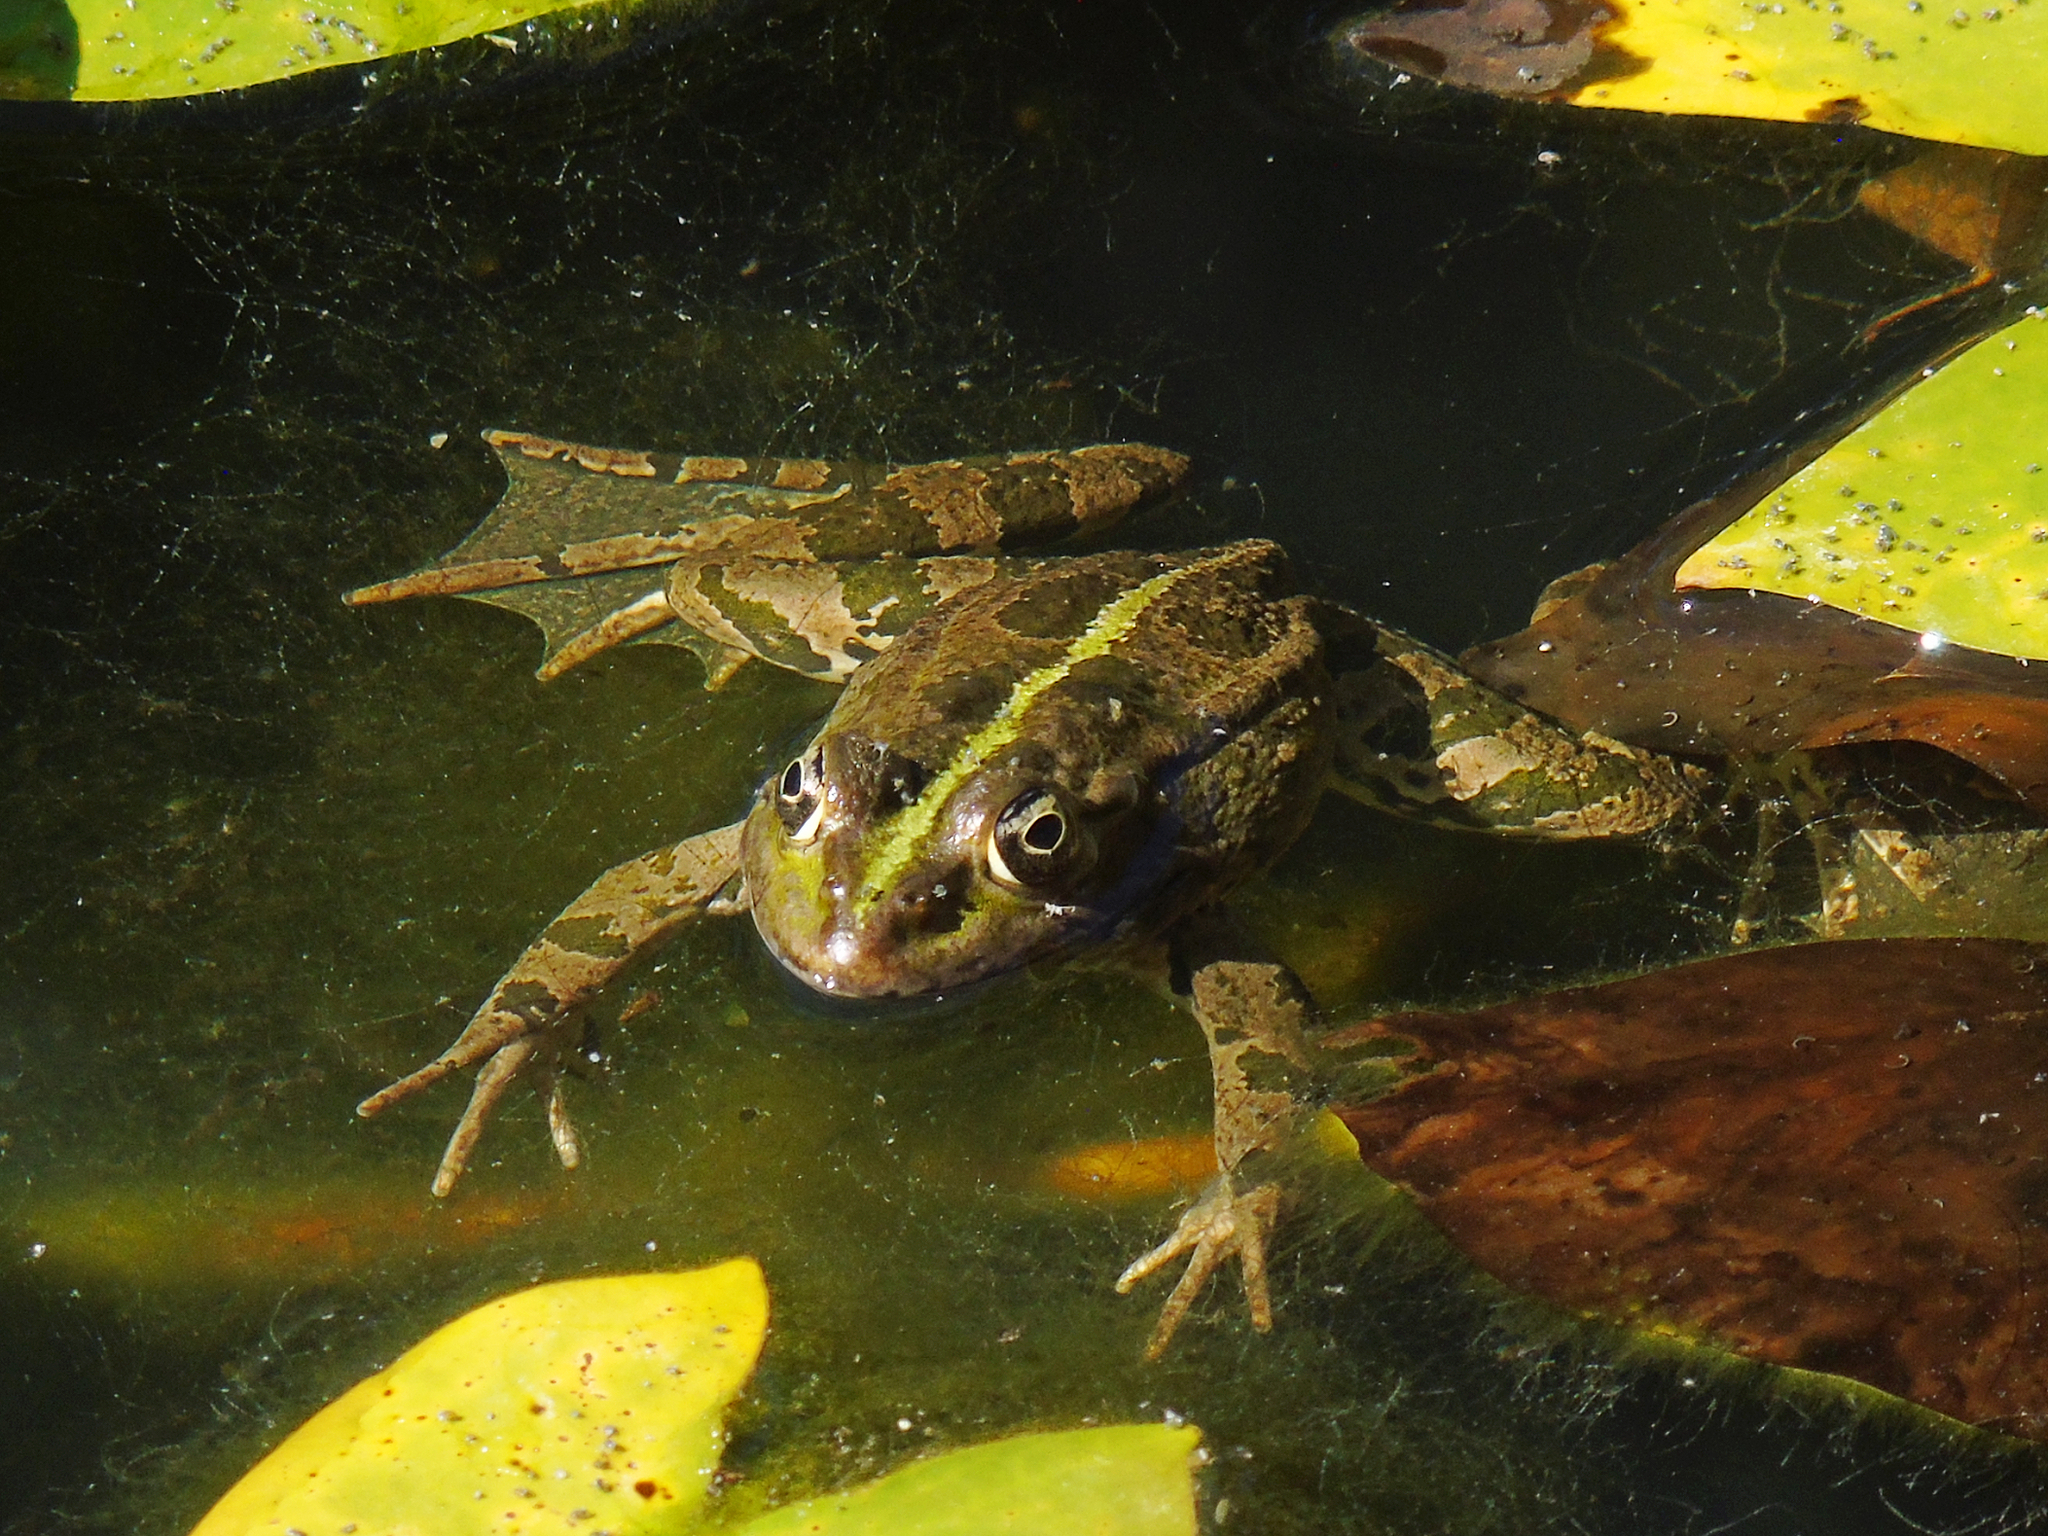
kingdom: Animalia
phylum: Chordata
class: Amphibia
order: Anura
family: Ranidae
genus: Pelophylax
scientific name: Pelophylax ridibundus
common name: Marsh frog
